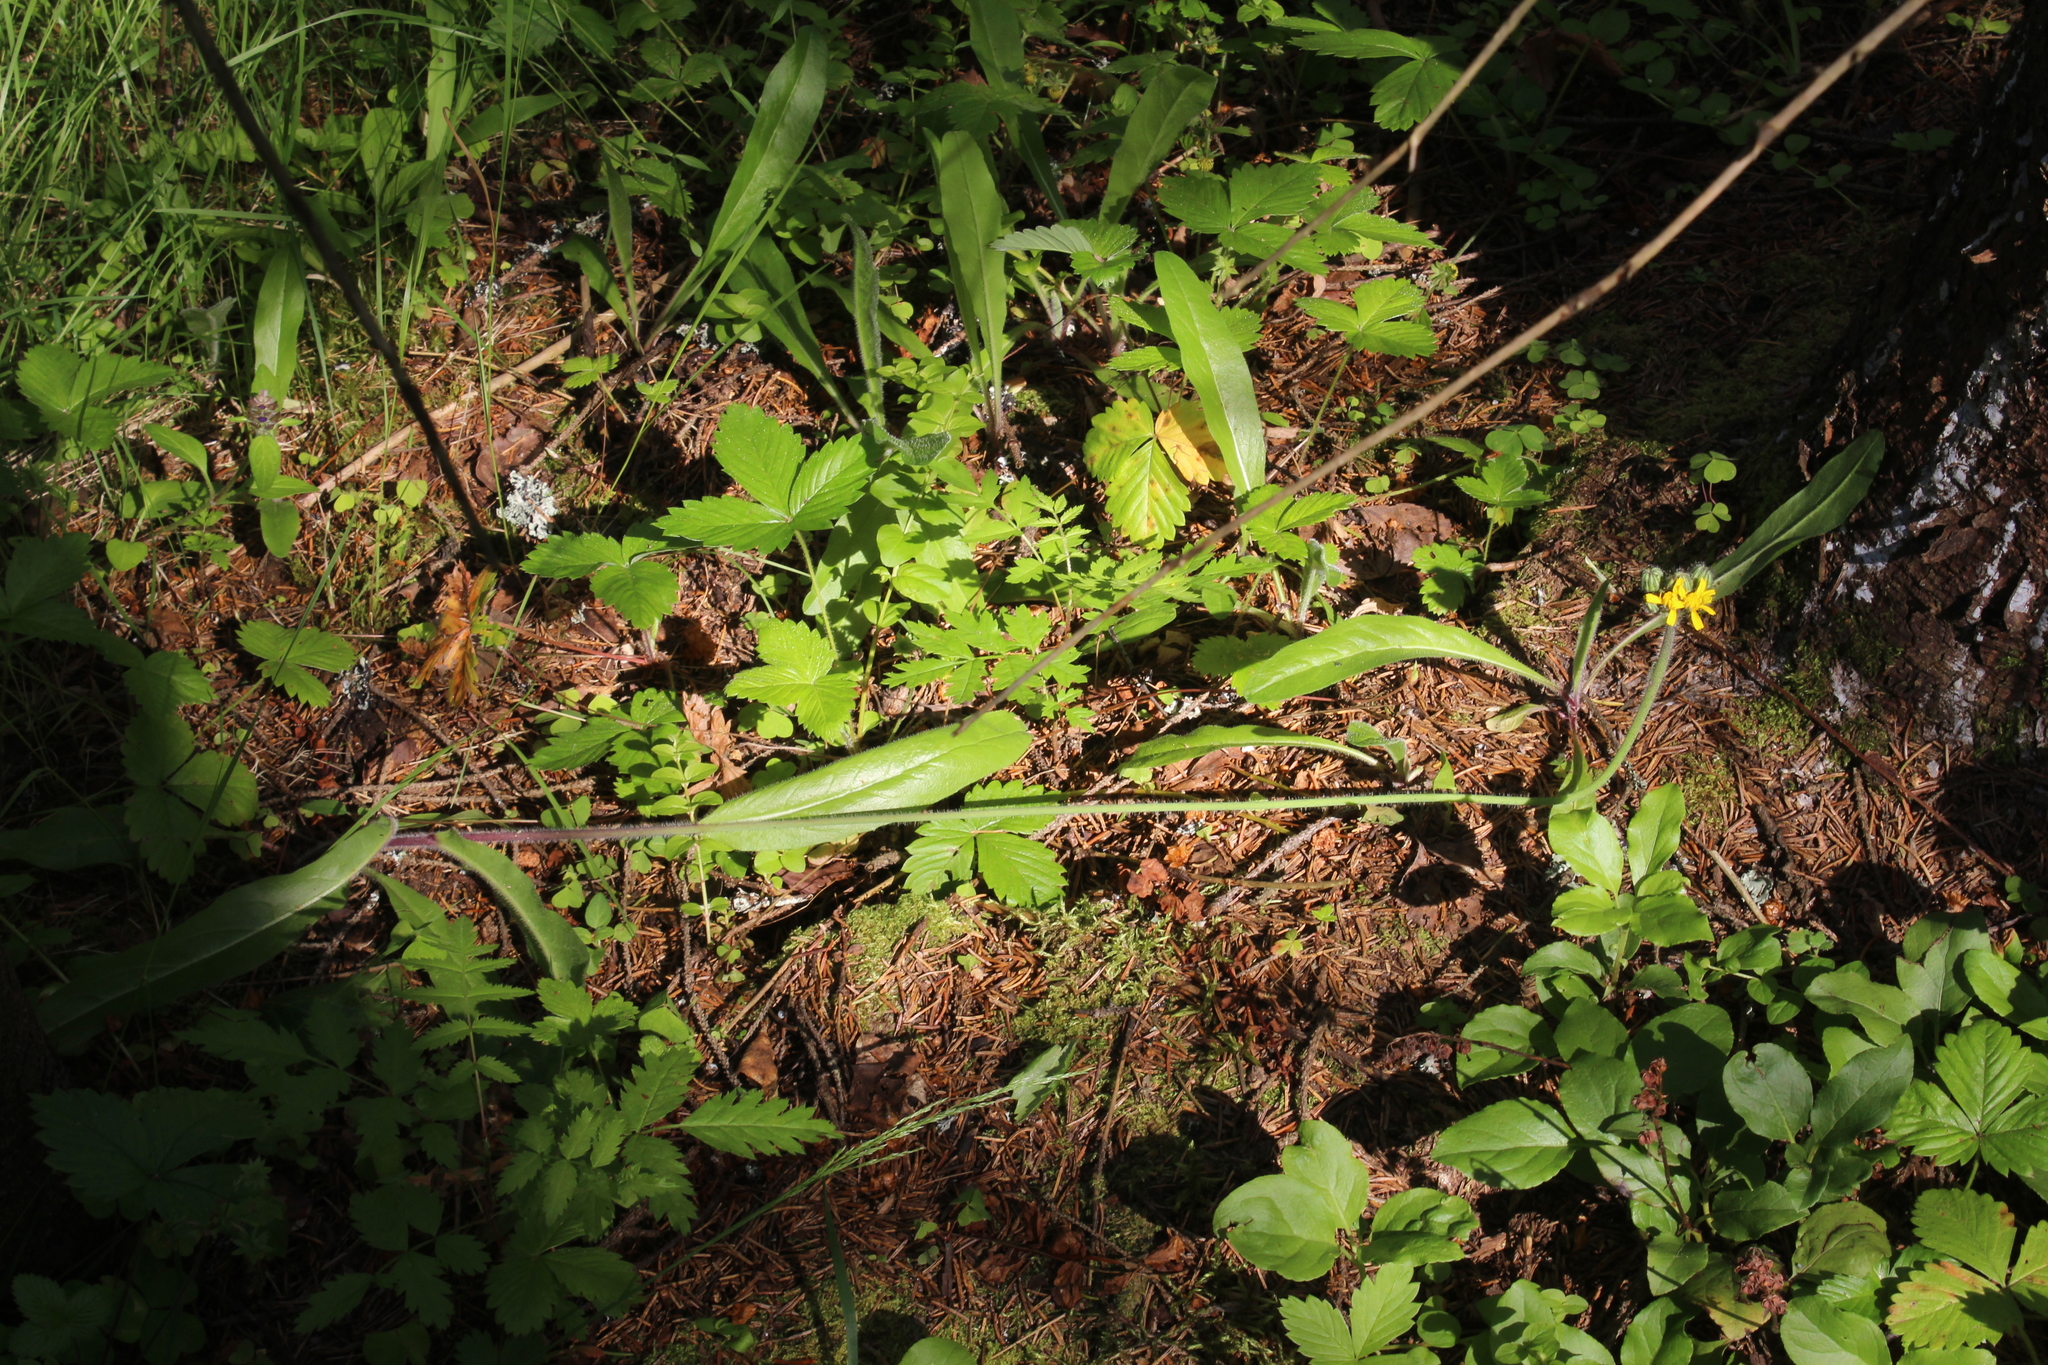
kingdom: Plantae
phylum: Tracheophyta
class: Magnoliopsida
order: Asterales
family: Asteraceae
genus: Pilosella
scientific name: Pilosella onegensis
